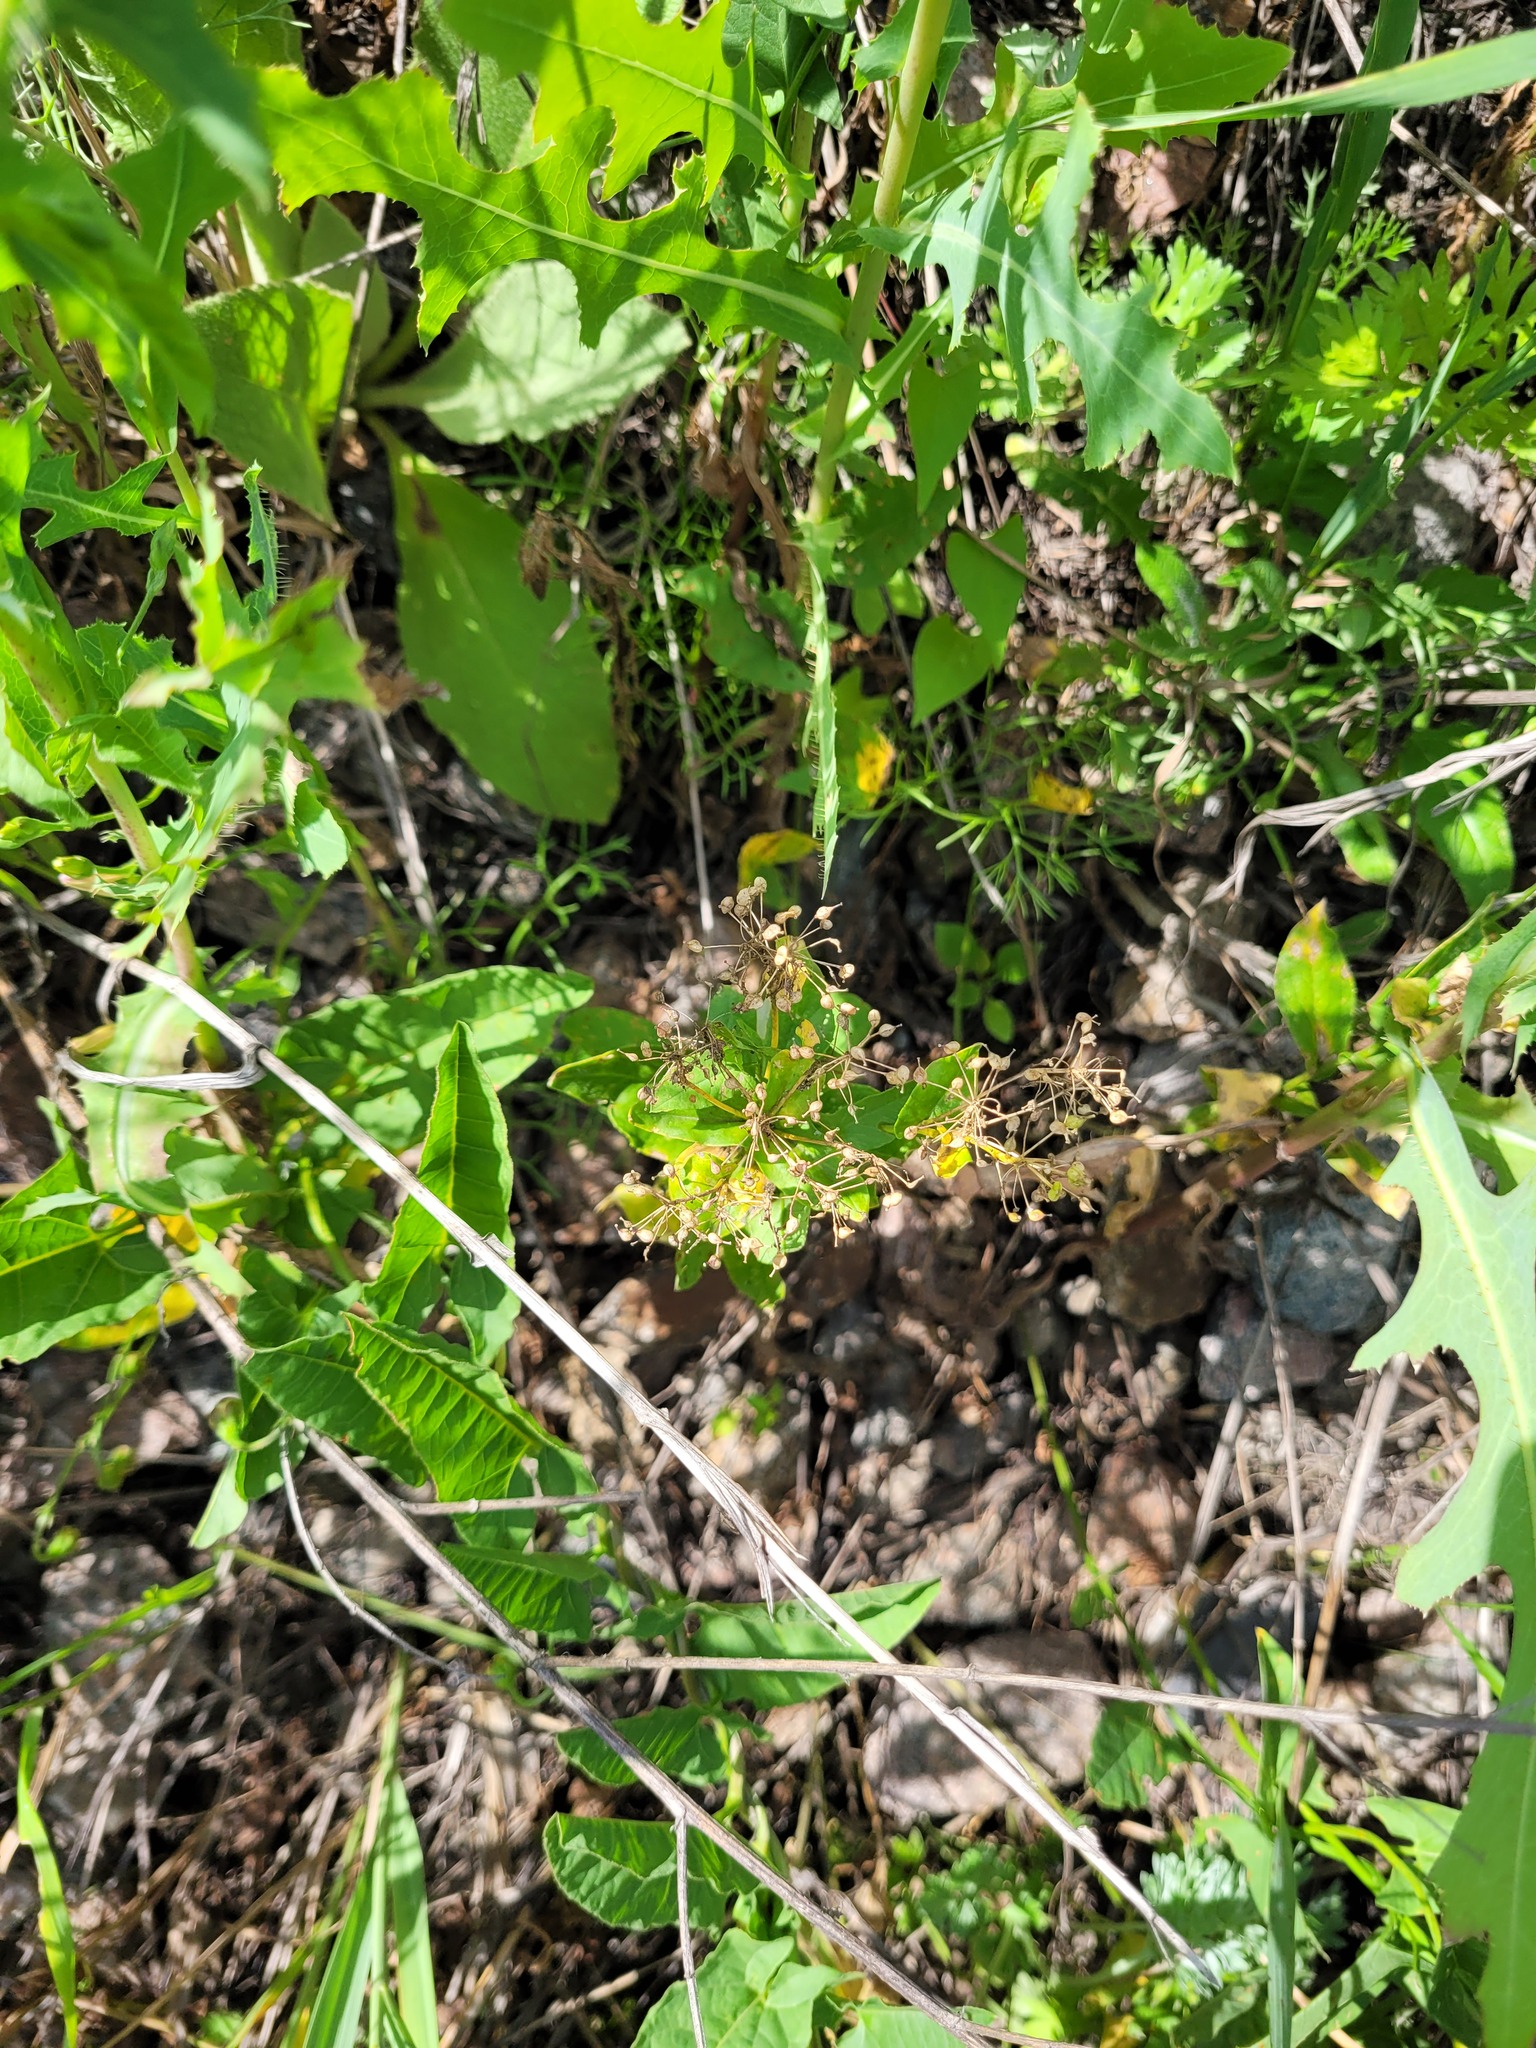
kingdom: Plantae
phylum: Tracheophyta
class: Magnoliopsida
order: Brassicales
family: Brassicaceae
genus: Lepidium
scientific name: Lepidium draba
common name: Hoary cress
